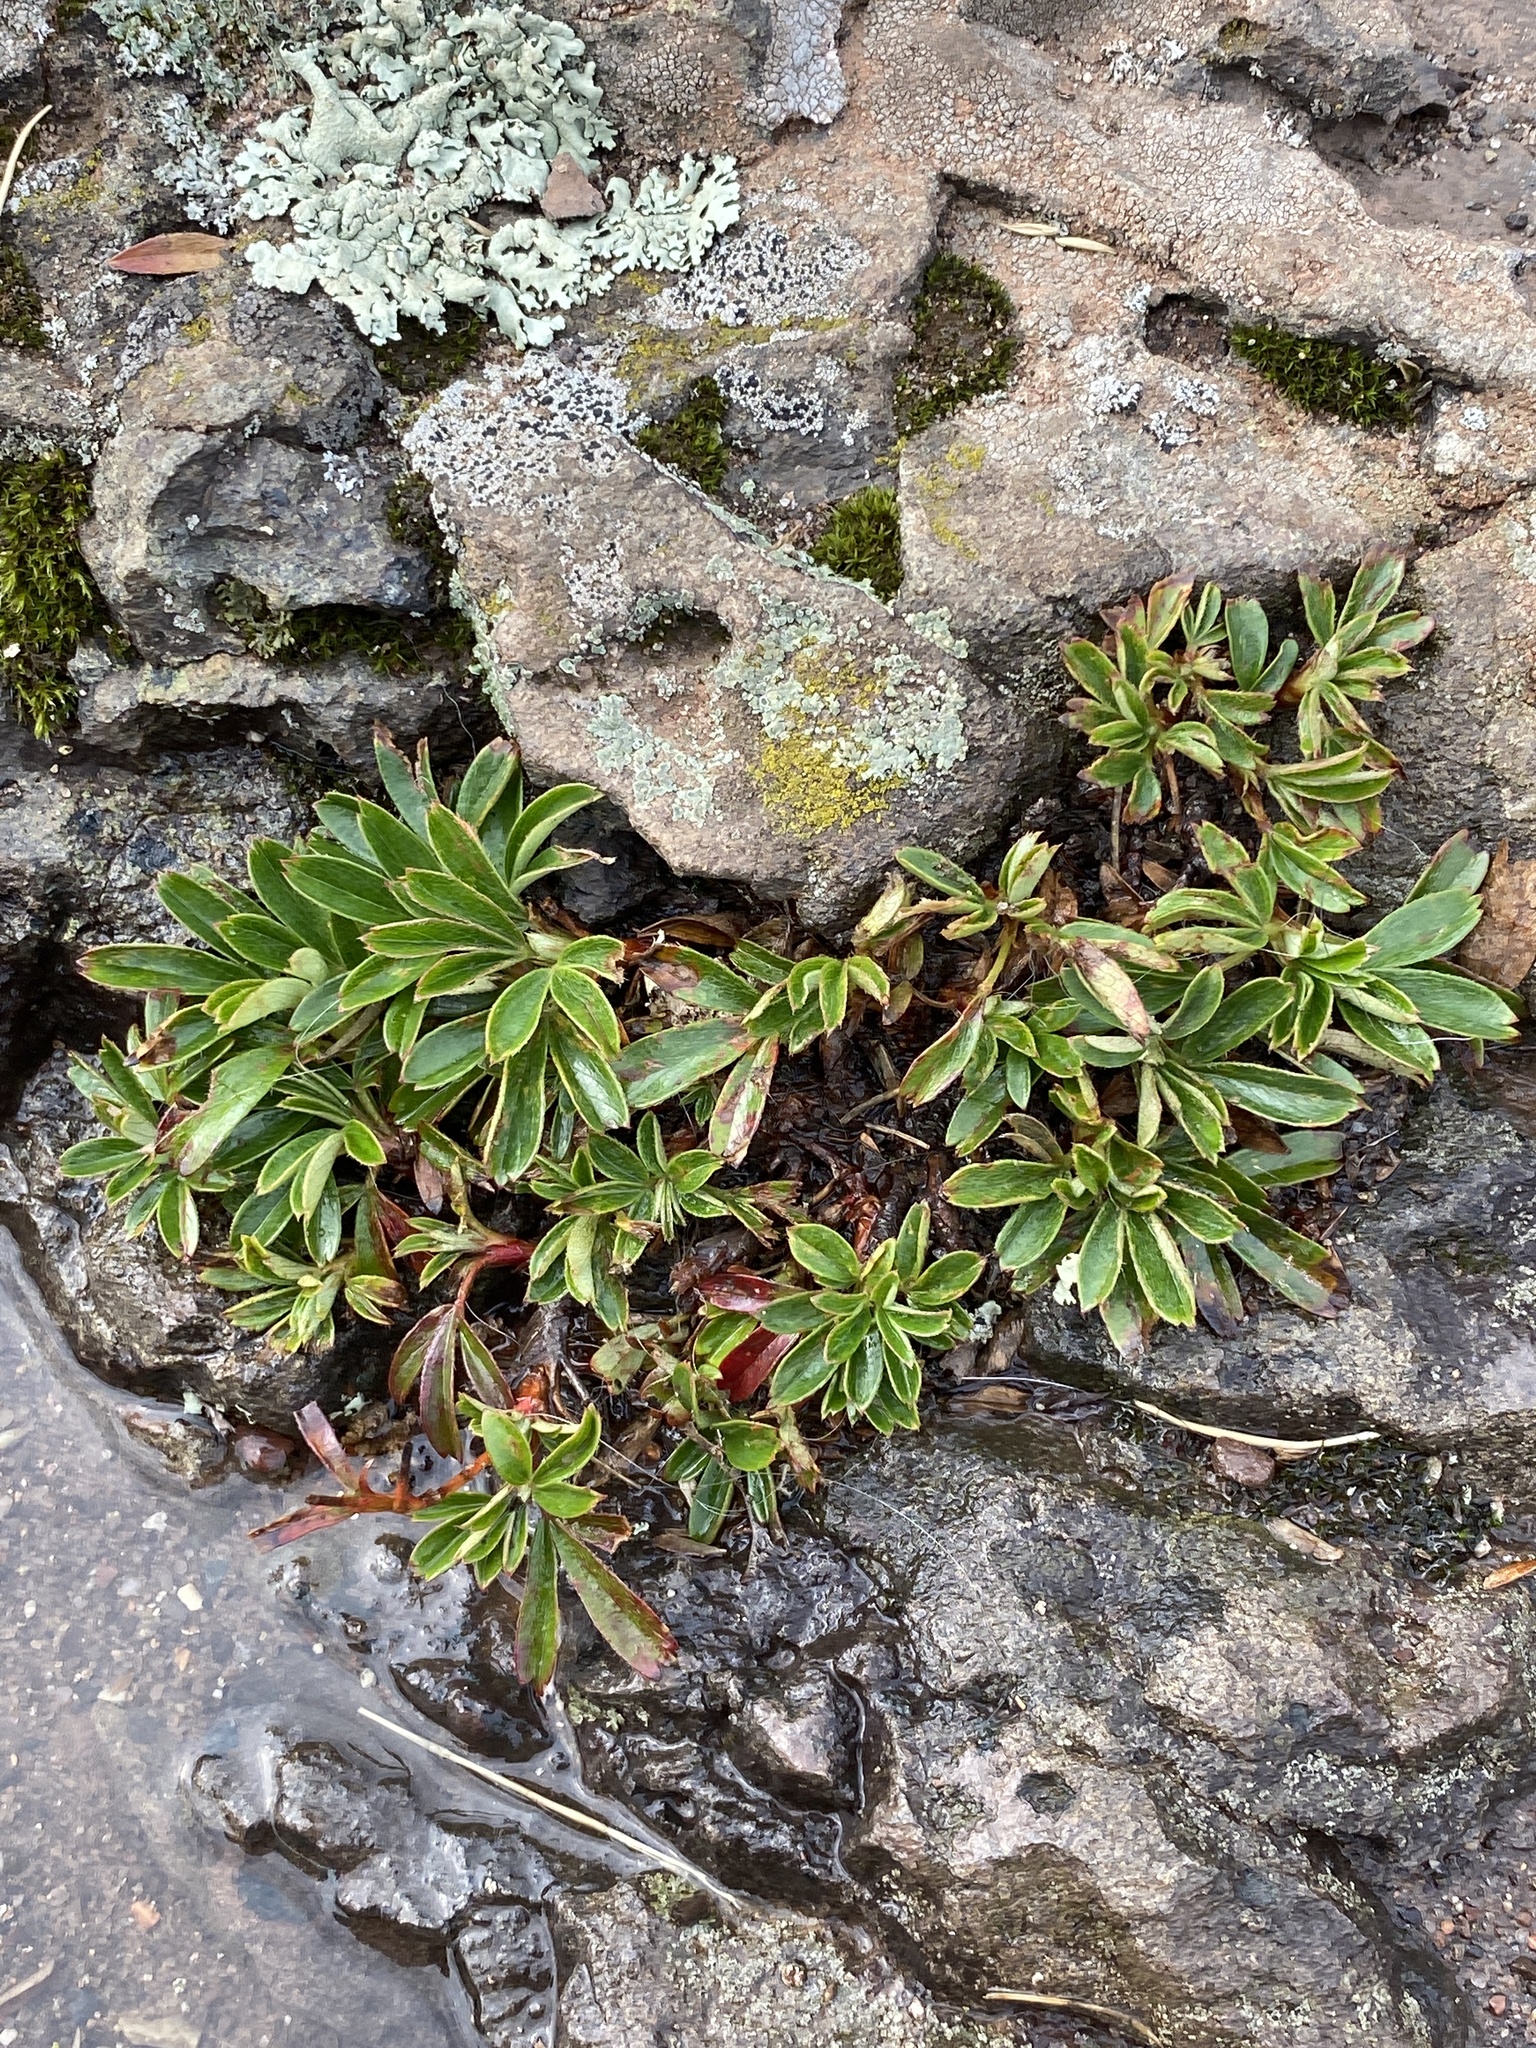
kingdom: Plantae
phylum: Tracheophyta
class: Magnoliopsida
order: Rosales
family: Rosaceae
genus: Sibbaldia
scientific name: Sibbaldia tridentata
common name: Three-toothed cinquefoil
